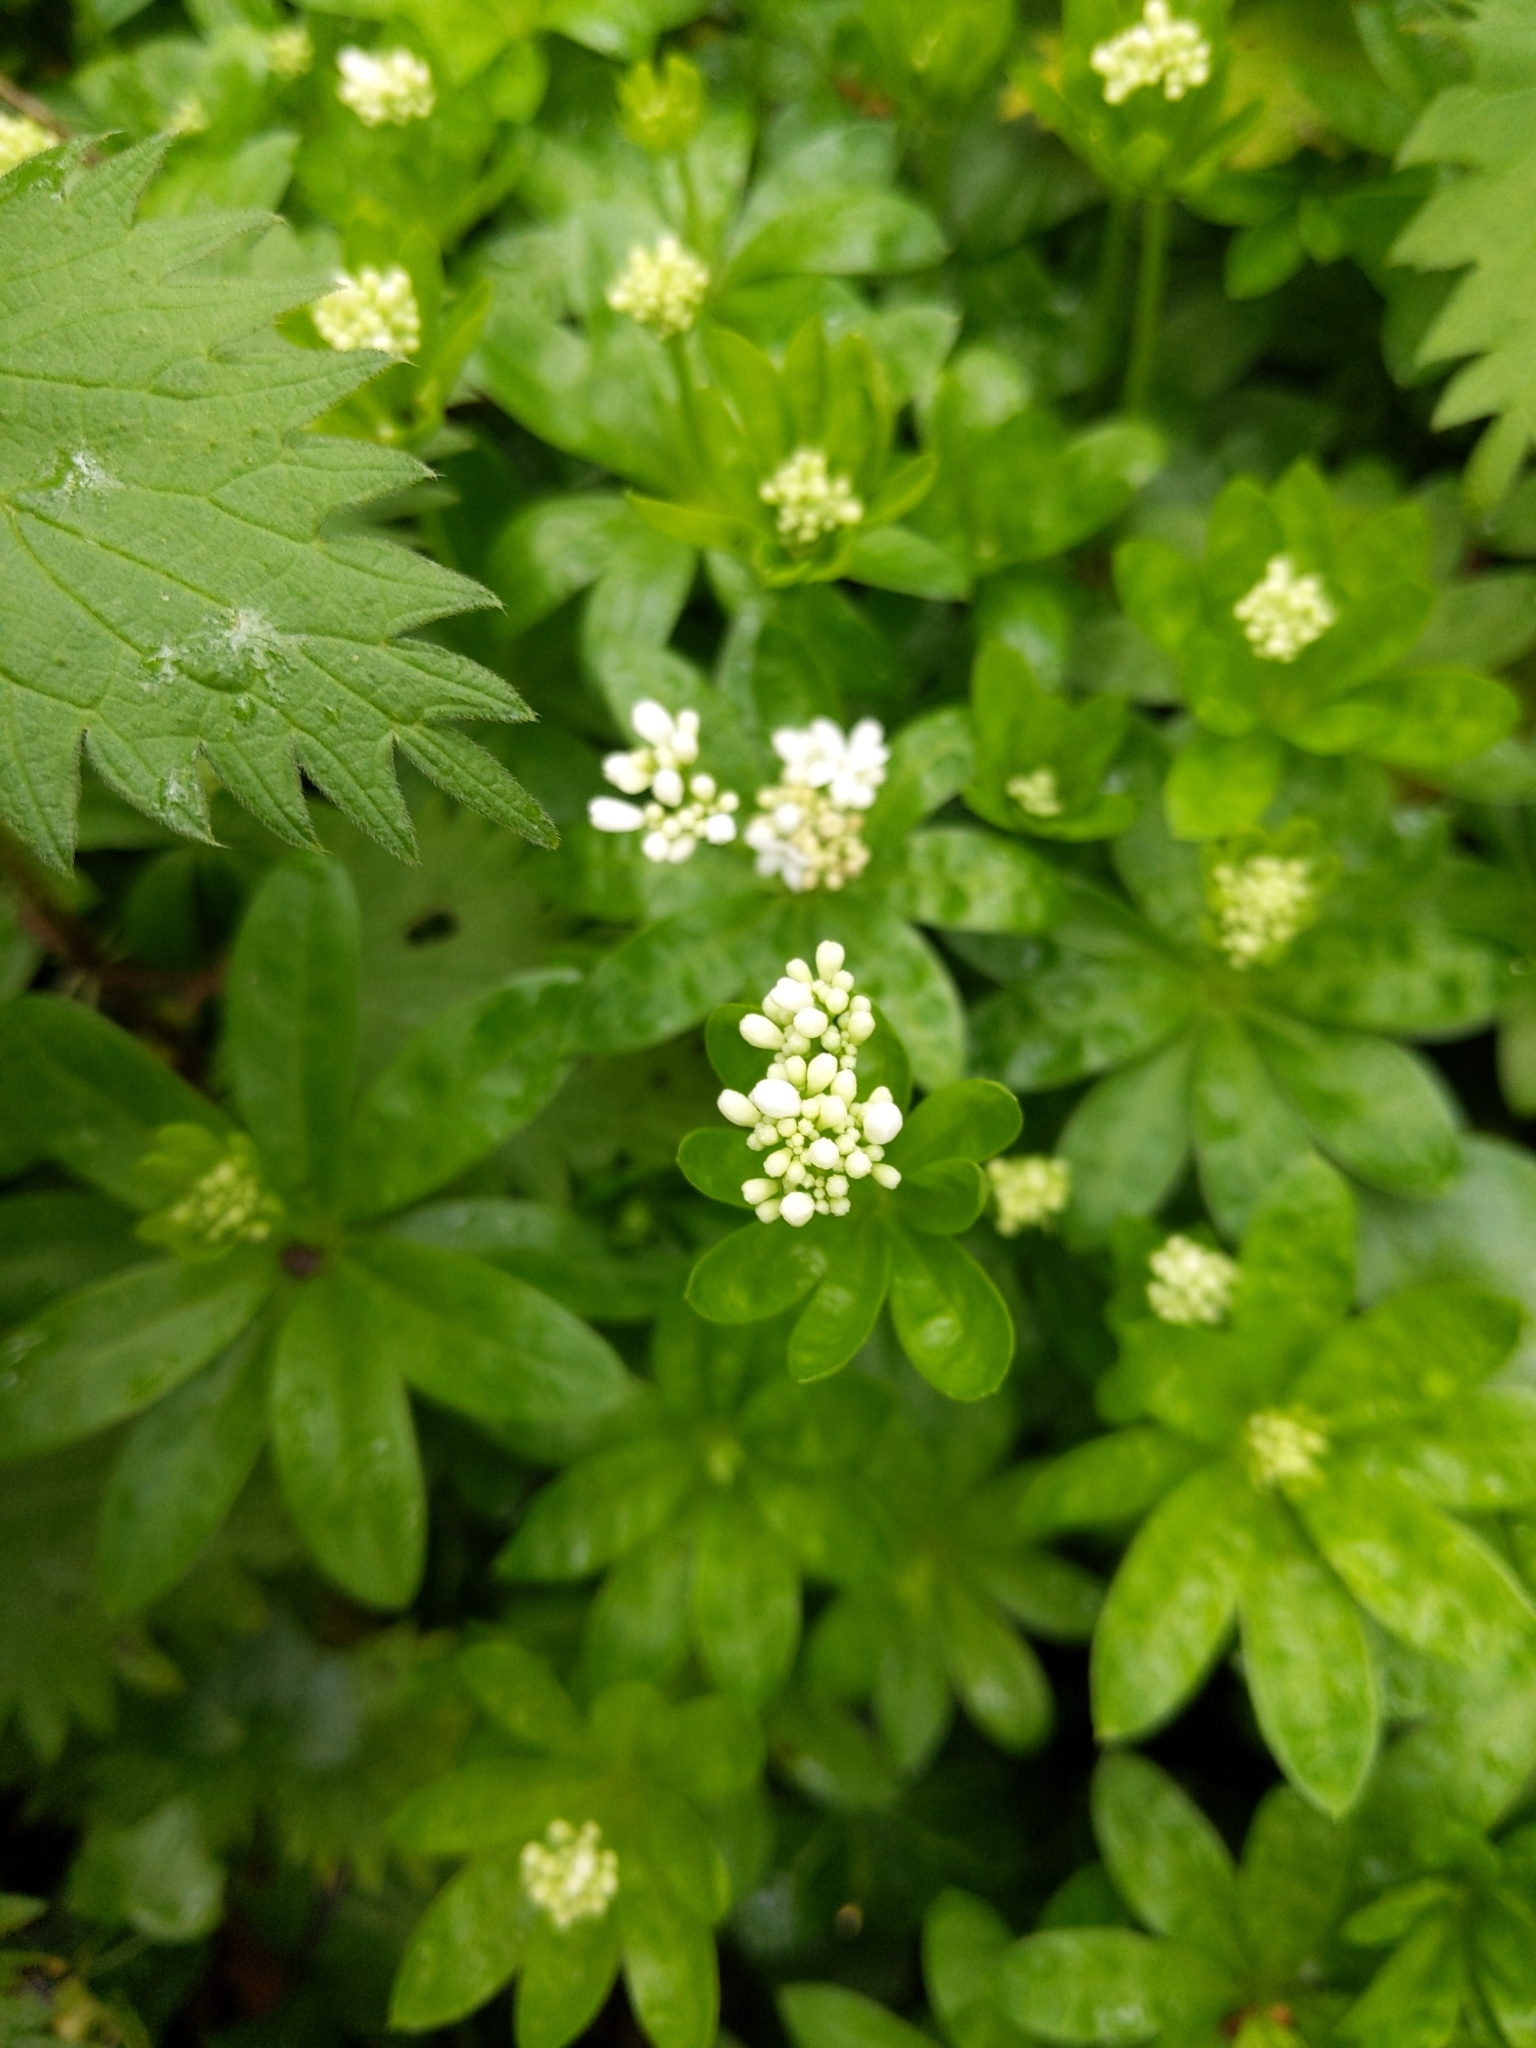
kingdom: Plantae
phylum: Tracheophyta
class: Magnoliopsida
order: Gentianales
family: Rubiaceae
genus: Galium
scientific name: Galium odoratum
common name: Sweet woodruff
